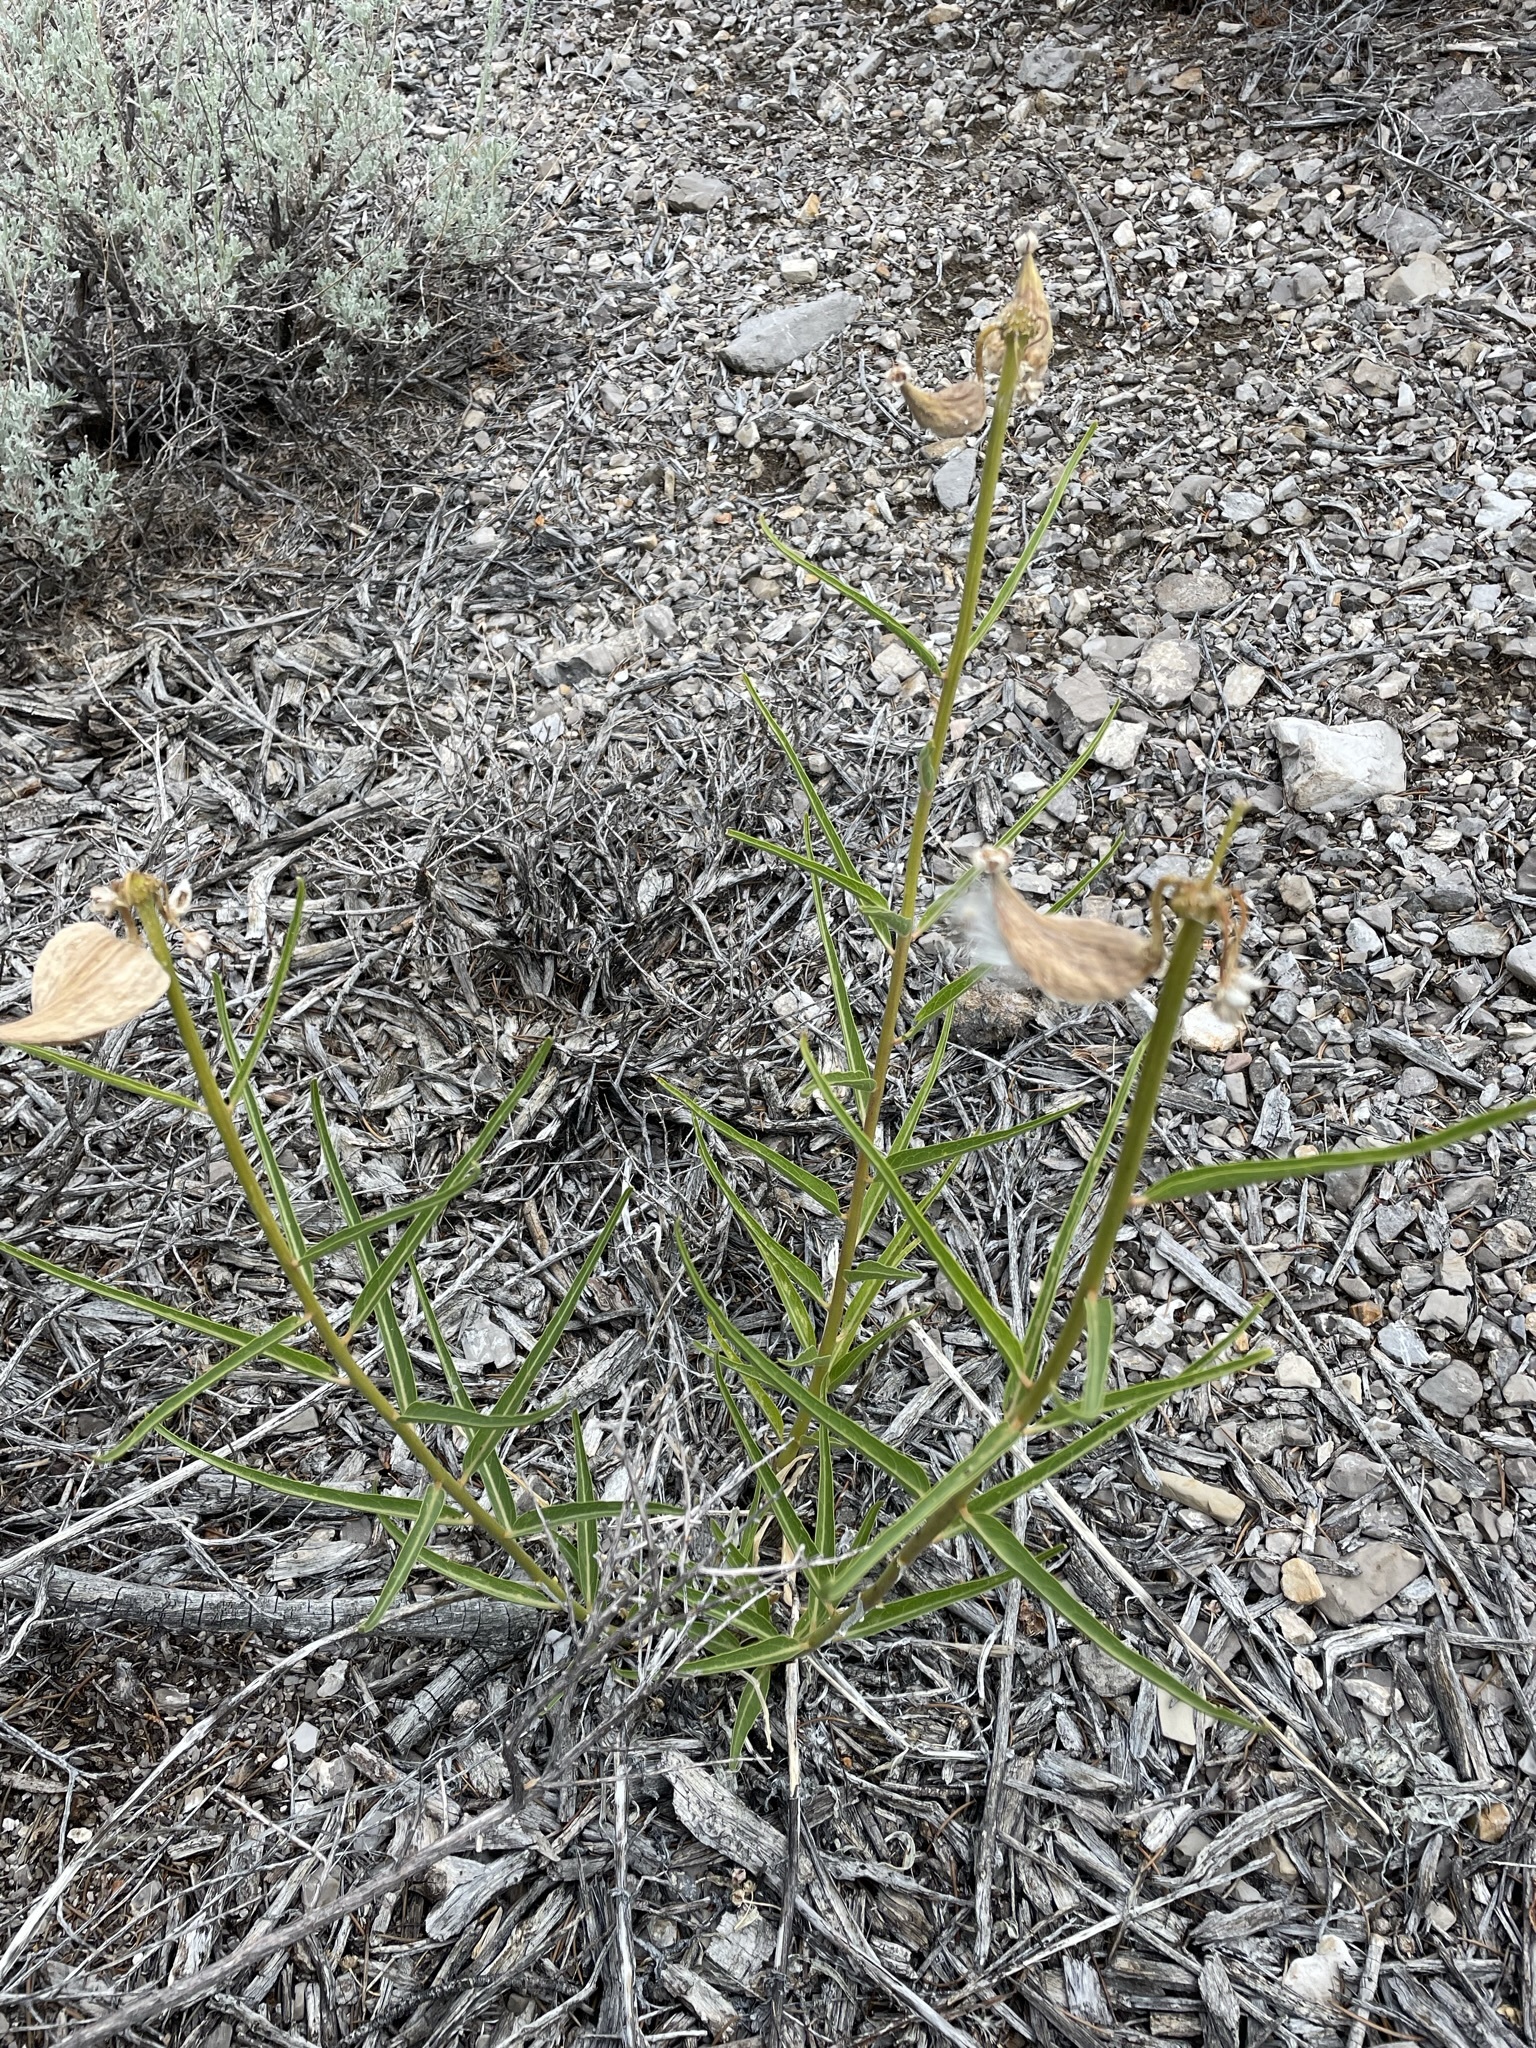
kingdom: Plantae
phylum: Tracheophyta
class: Magnoliopsida
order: Gentianales
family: Apocynaceae
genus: Asclepias
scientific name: Asclepias asperula
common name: Antelope horns
